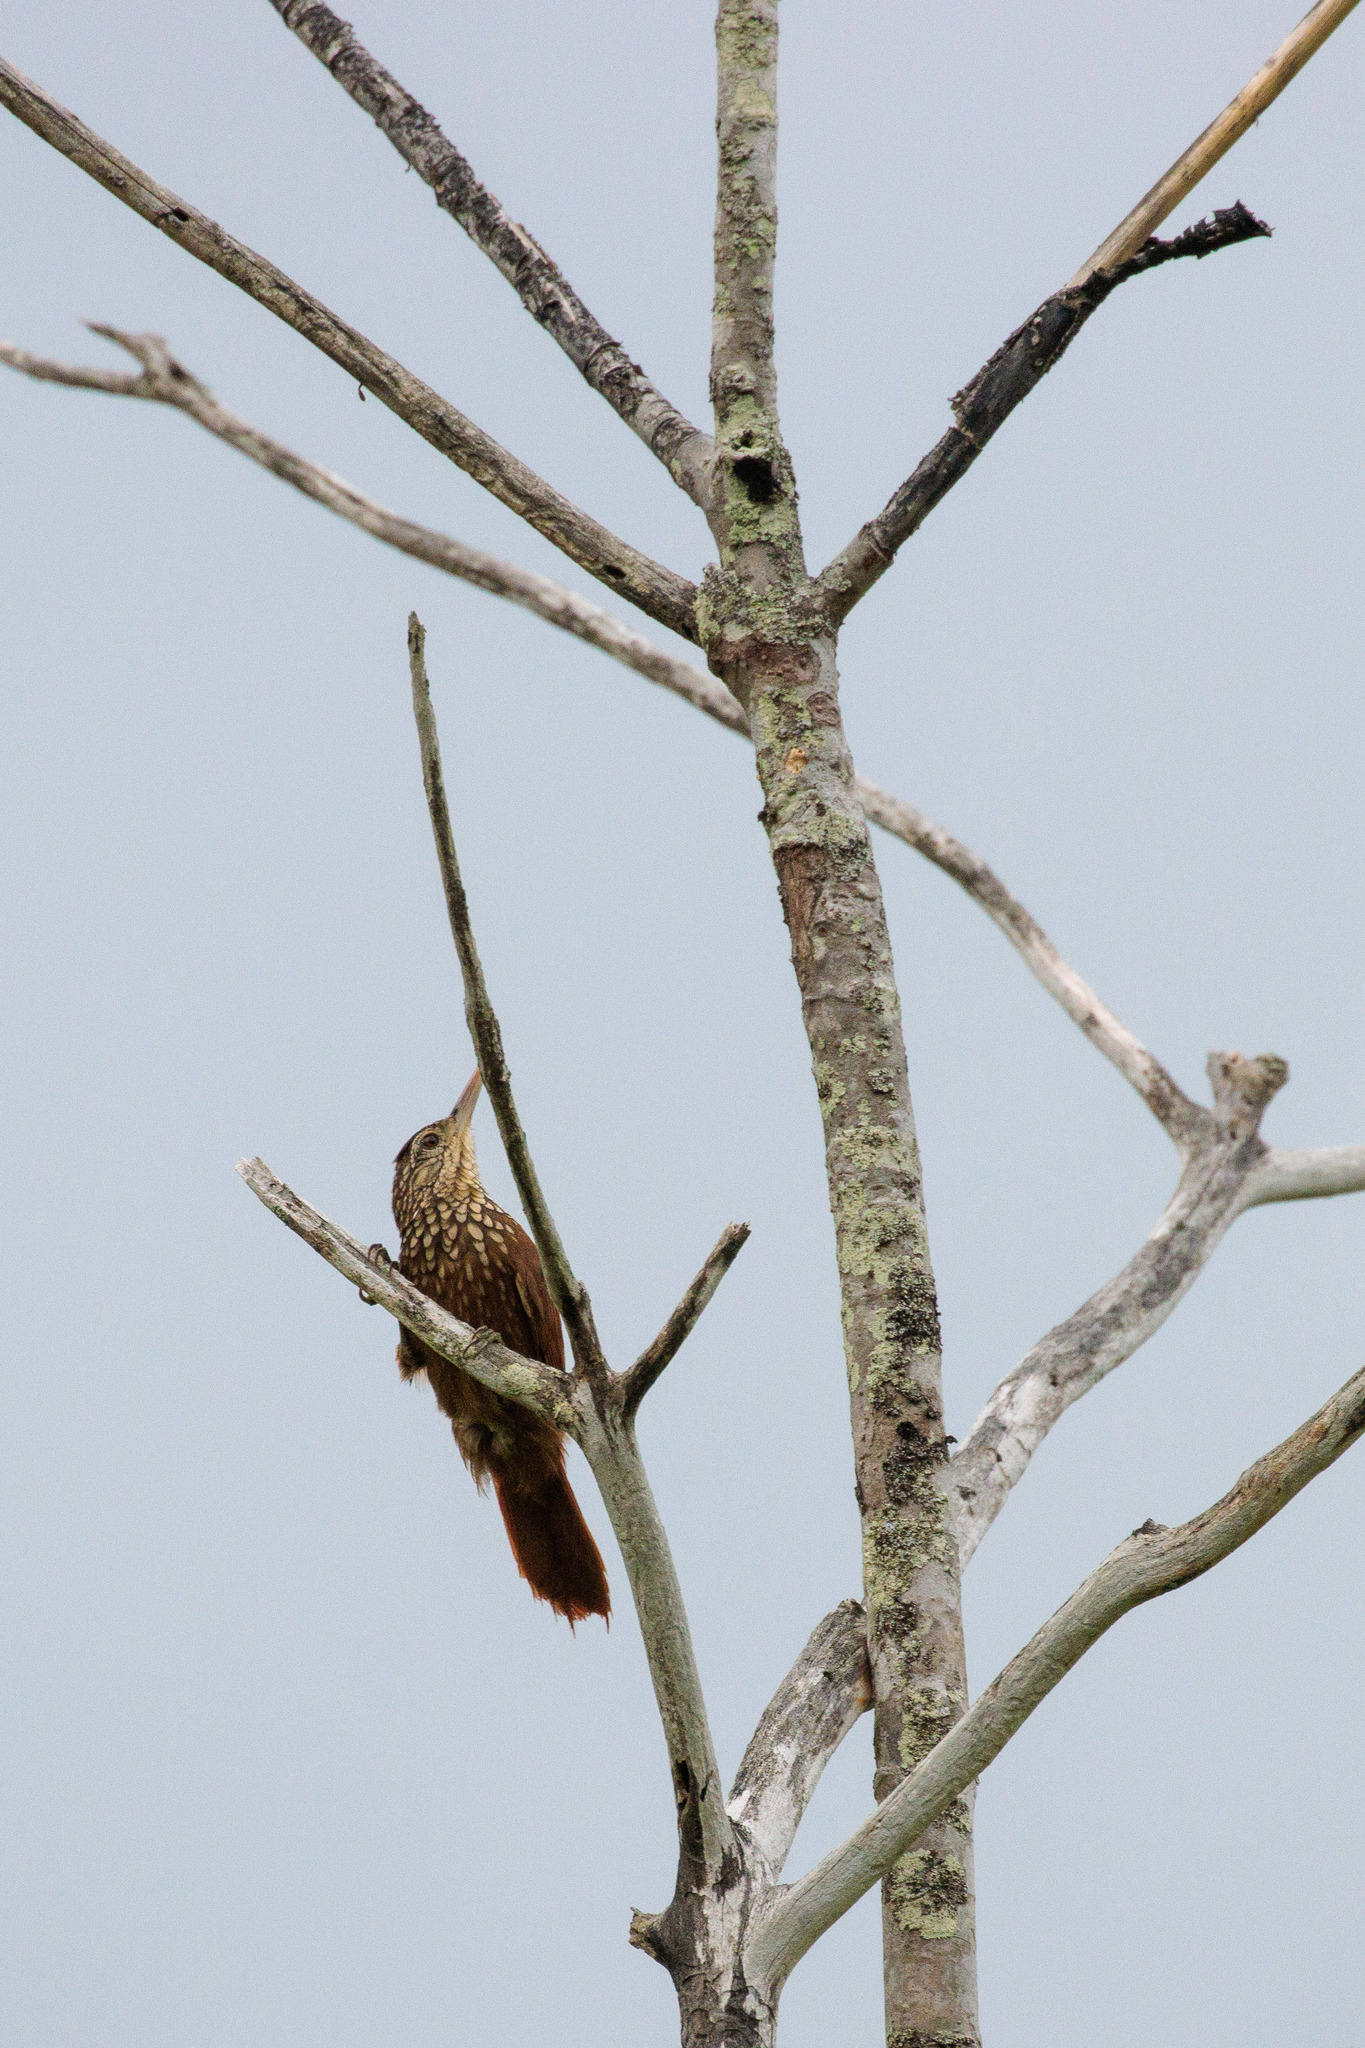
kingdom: Animalia
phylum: Chordata
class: Aves
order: Passeriformes
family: Furnariidae
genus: Xiphorhynchus
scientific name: Xiphorhynchus picus
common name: Straight-billed woodcreeper
